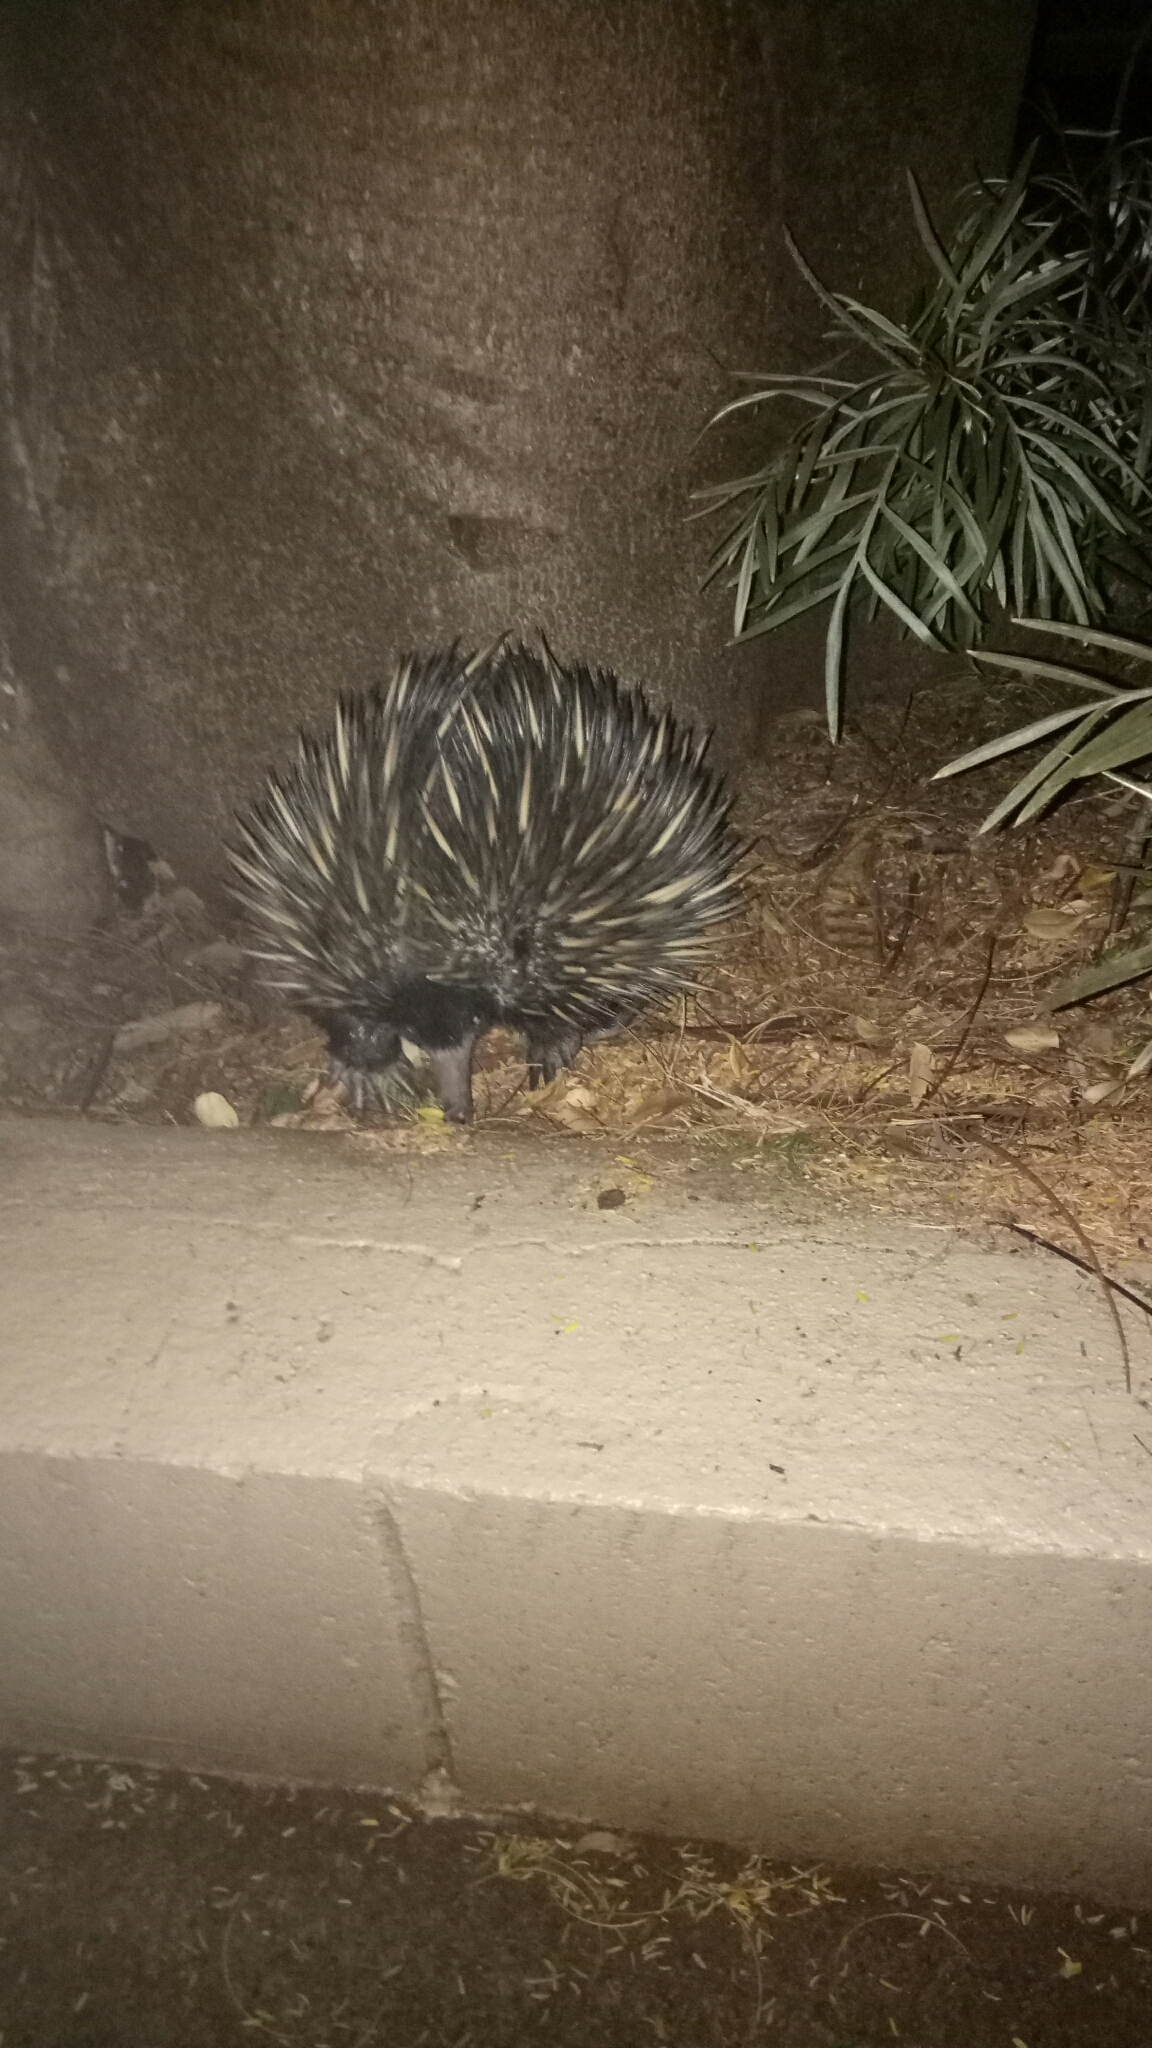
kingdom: Animalia
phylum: Chordata
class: Mammalia
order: Monotremata
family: Tachyglossidae
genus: Tachyglossus
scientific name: Tachyglossus aculeatus
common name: Short-beaked echidna
